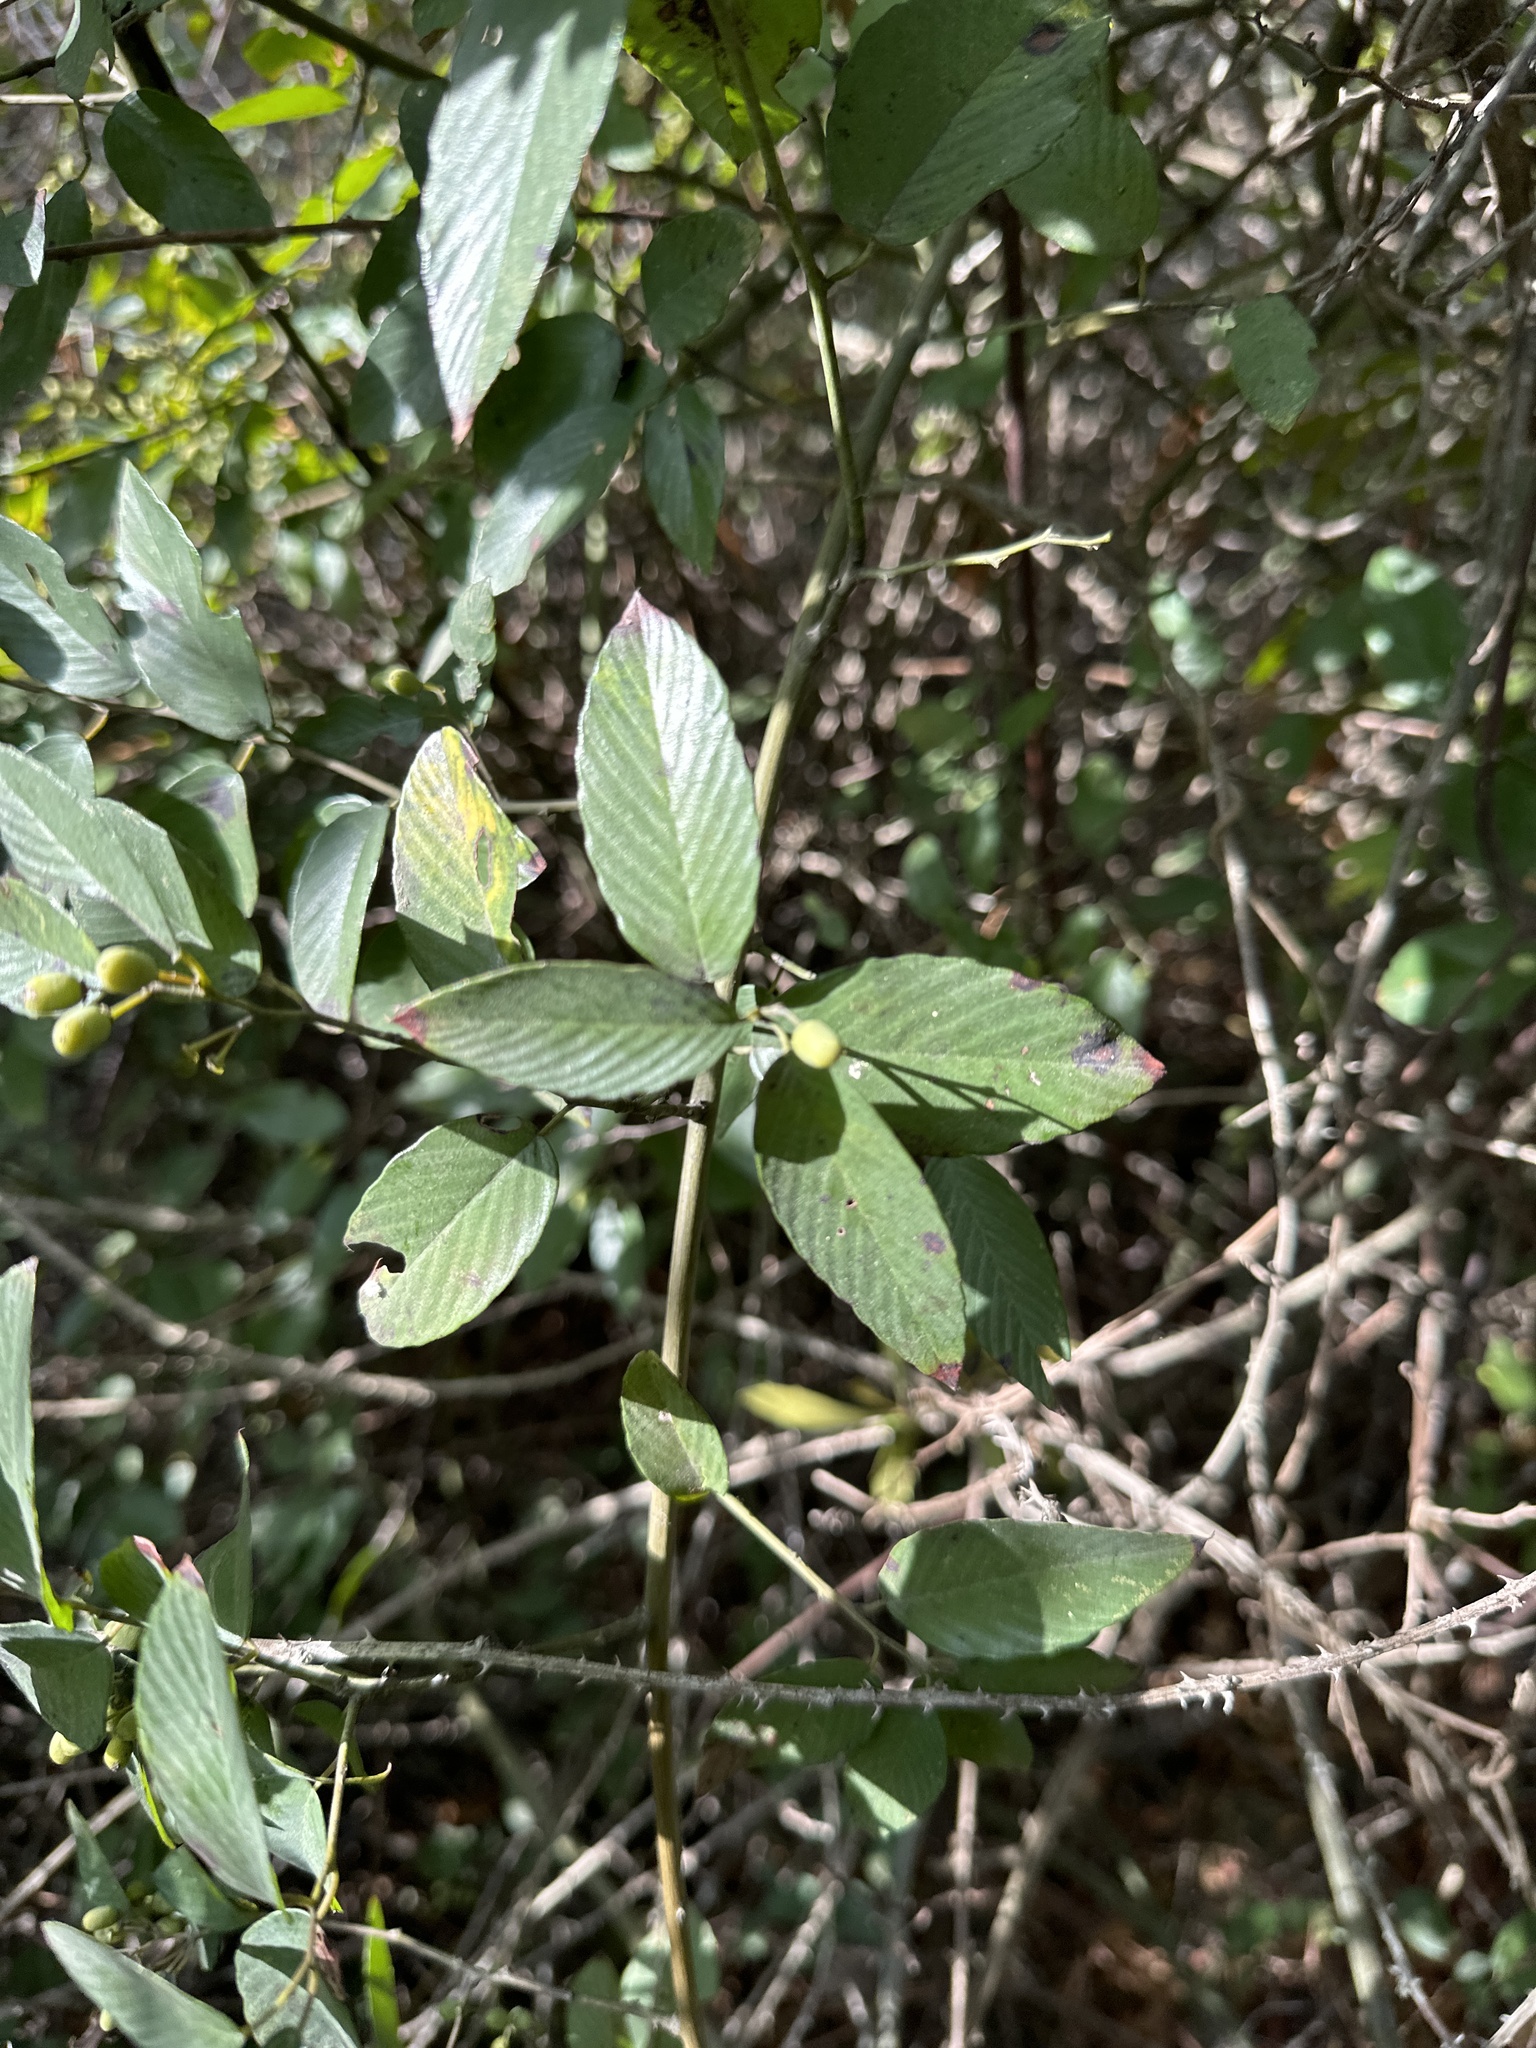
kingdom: Plantae
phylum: Tracheophyta
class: Magnoliopsida
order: Rosales
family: Rhamnaceae
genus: Berchemia
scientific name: Berchemia scandens
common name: Supplejack
